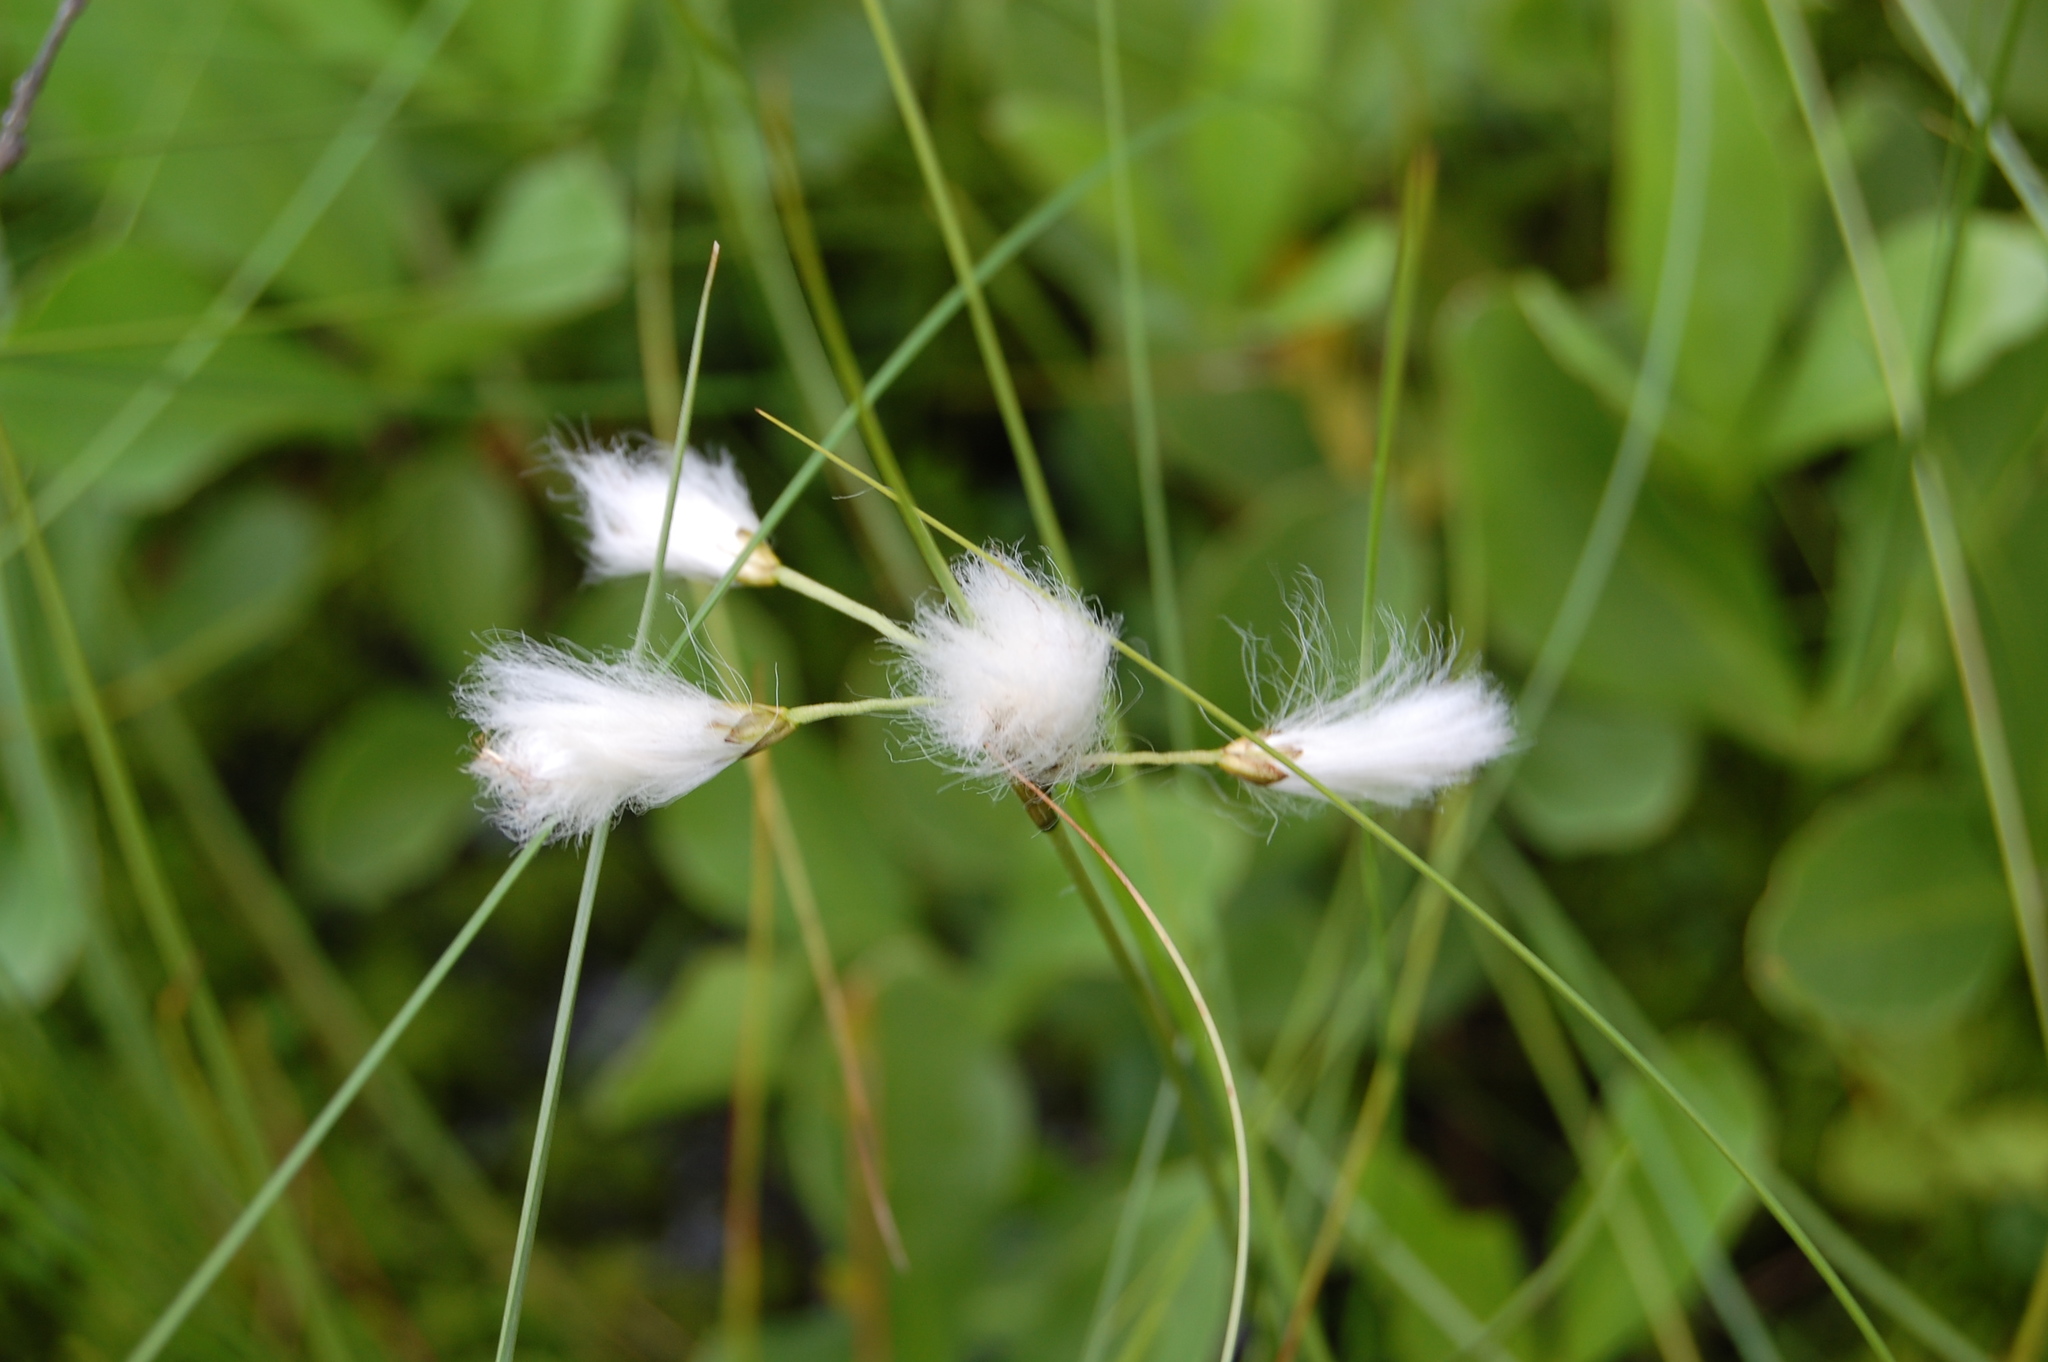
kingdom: Plantae
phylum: Tracheophyta
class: Liliopsida
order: Poales
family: Cyperaceae
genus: Eriophorum
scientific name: Eriophorum angustifolium
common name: Common cottongrass
